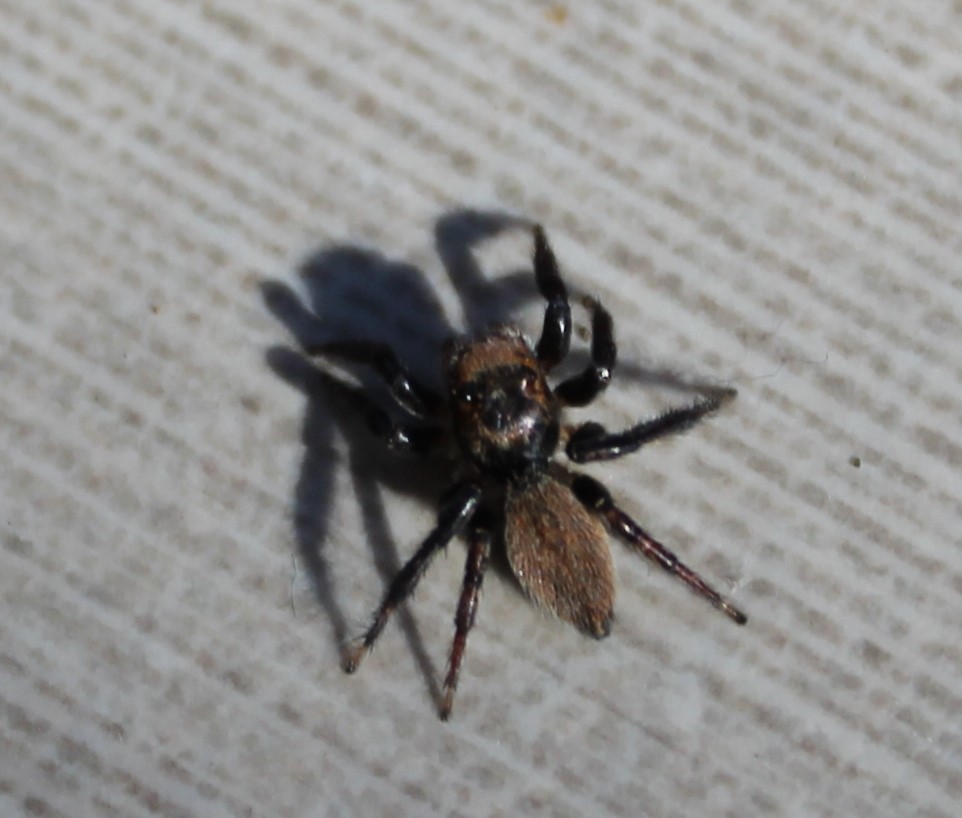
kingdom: Animalia
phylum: Arthropoda
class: Arachnida
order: Araneae
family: Salticidae
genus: Maratus
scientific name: Maratus griseus
